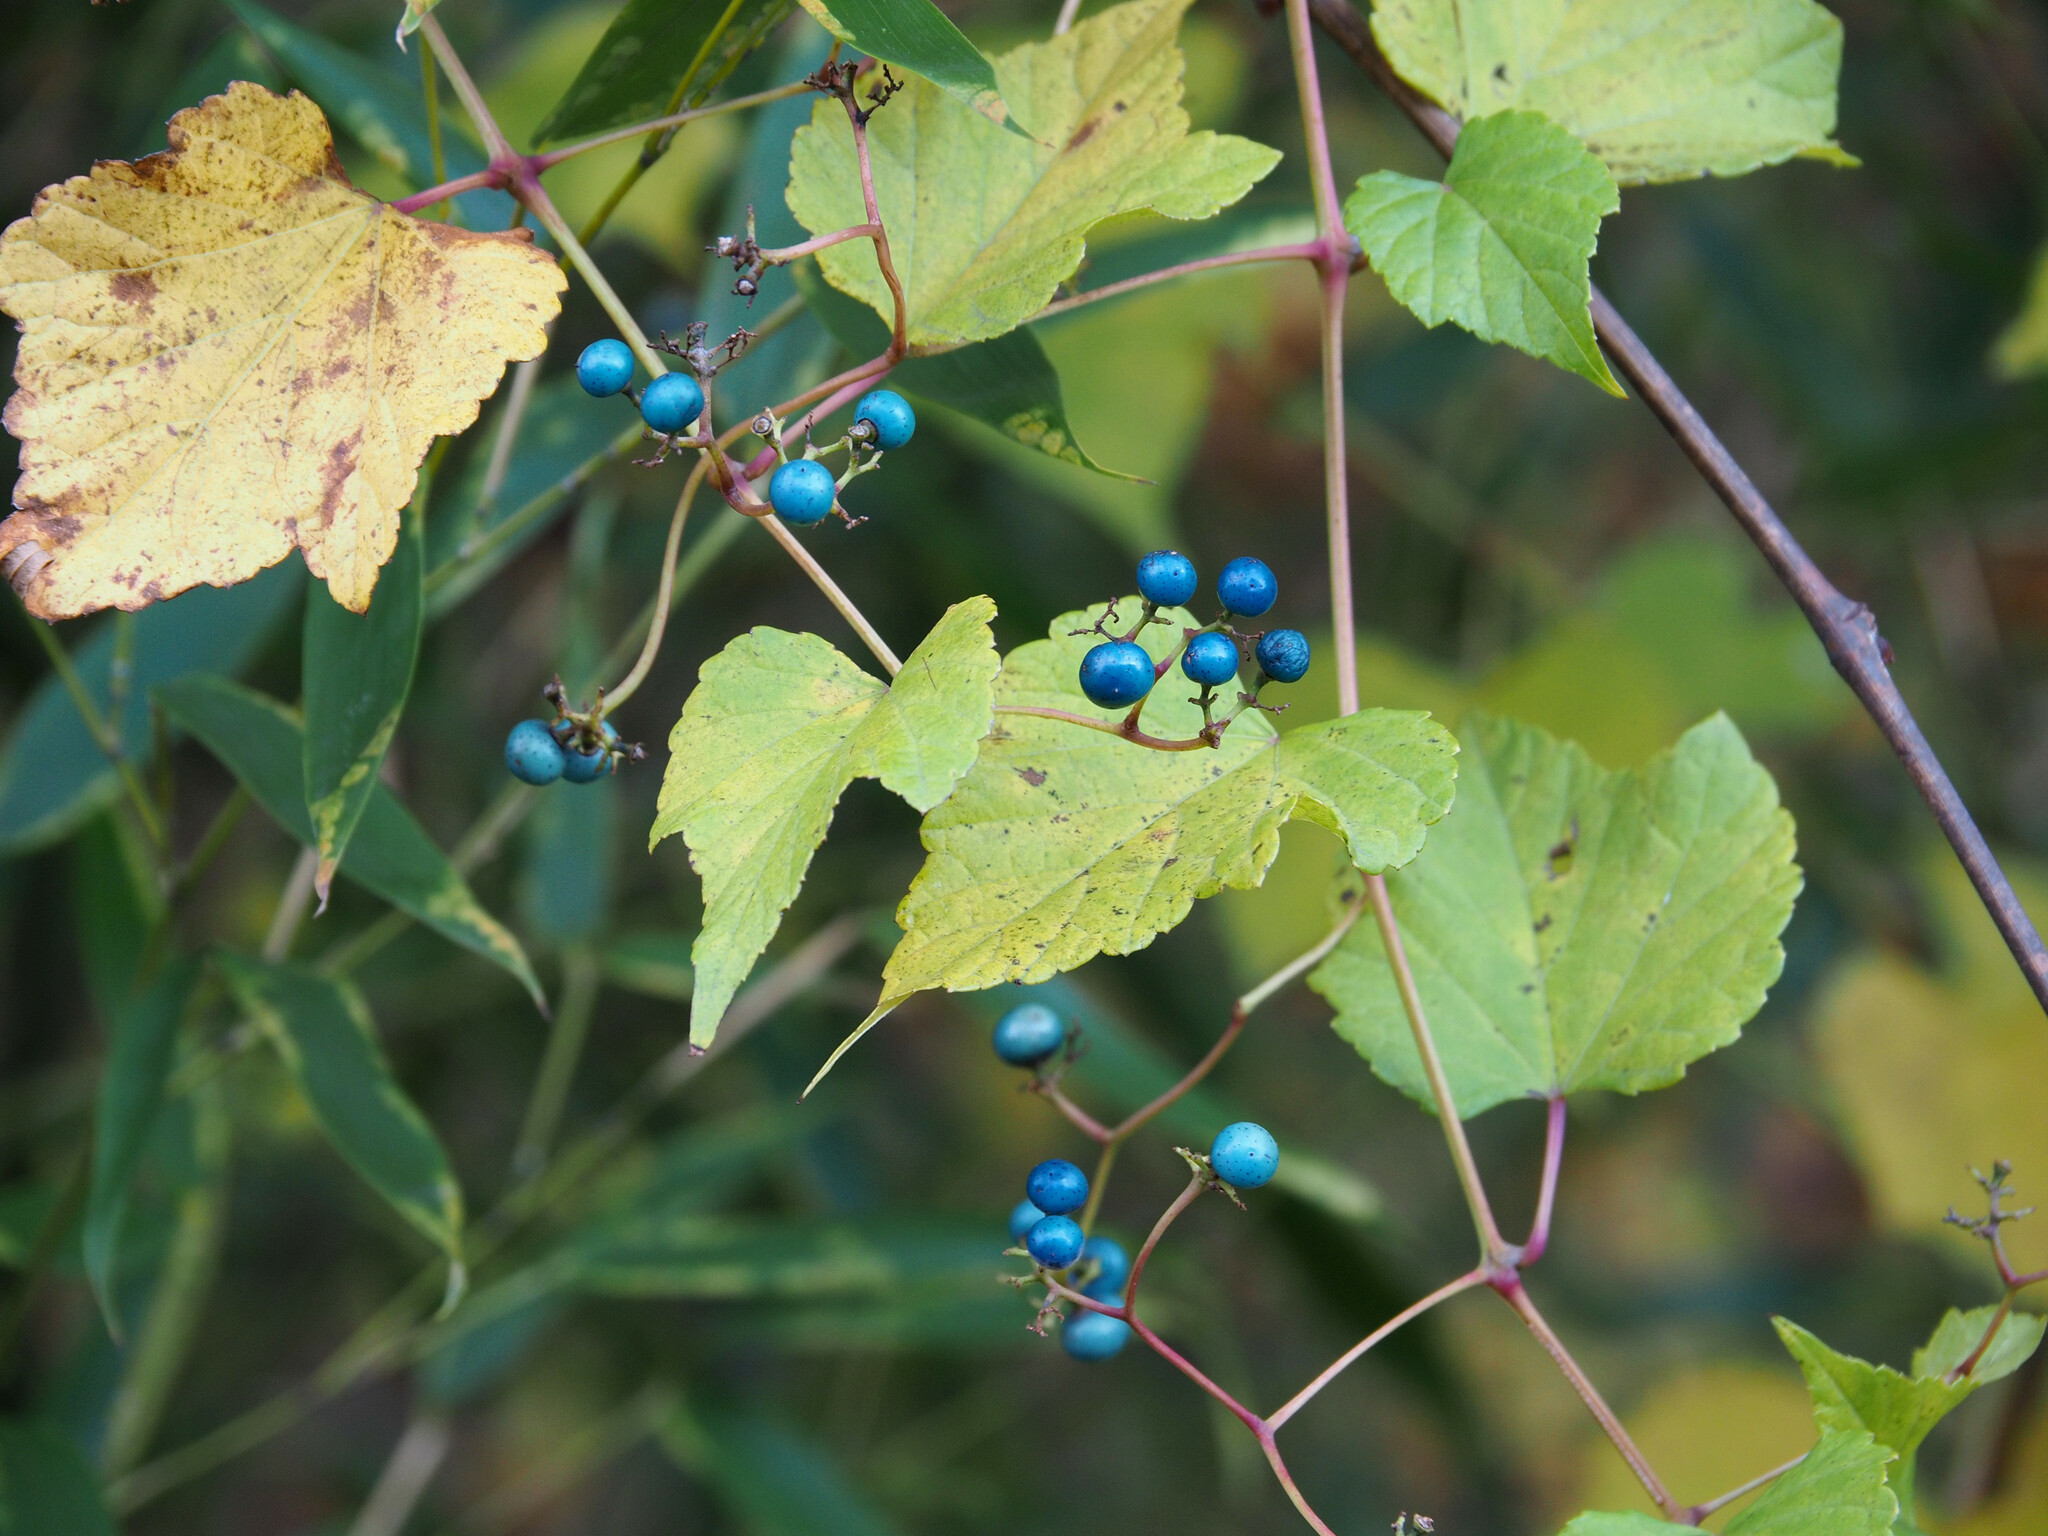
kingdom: Plantae
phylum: Tracheophyta
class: Magnoliopsida
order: Vitales
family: Vitaceae
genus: Ampelopsis
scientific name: Ampelopsis glandulosa
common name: Amur peppervine
